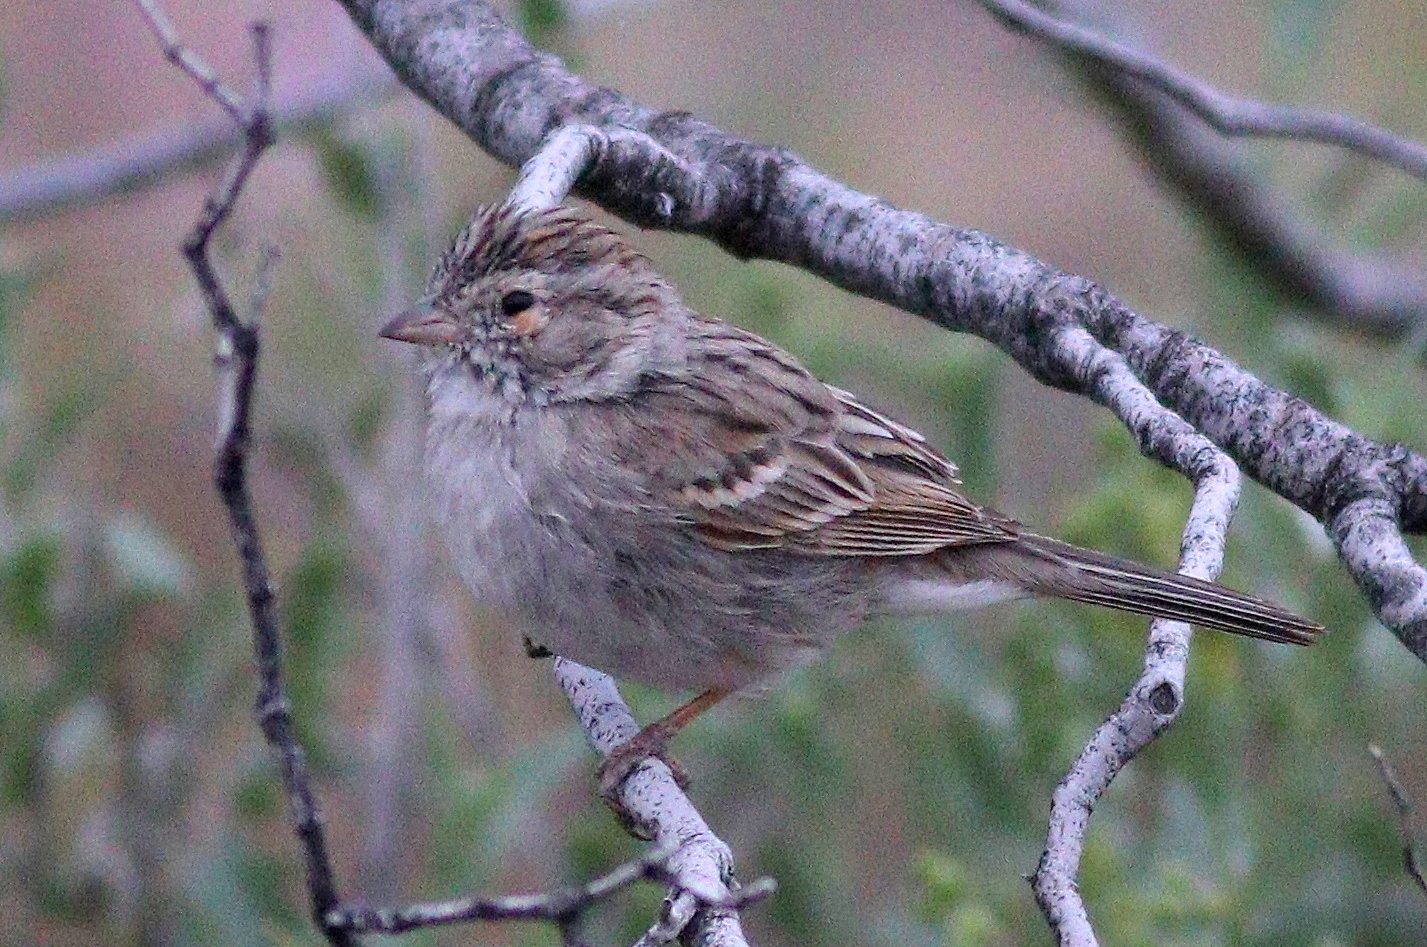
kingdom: Animalia
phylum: Chordata
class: Aves
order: Passeriformes
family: Passerellidae
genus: Spizella
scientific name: Spizella breweri
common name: Brewer's sparrow
